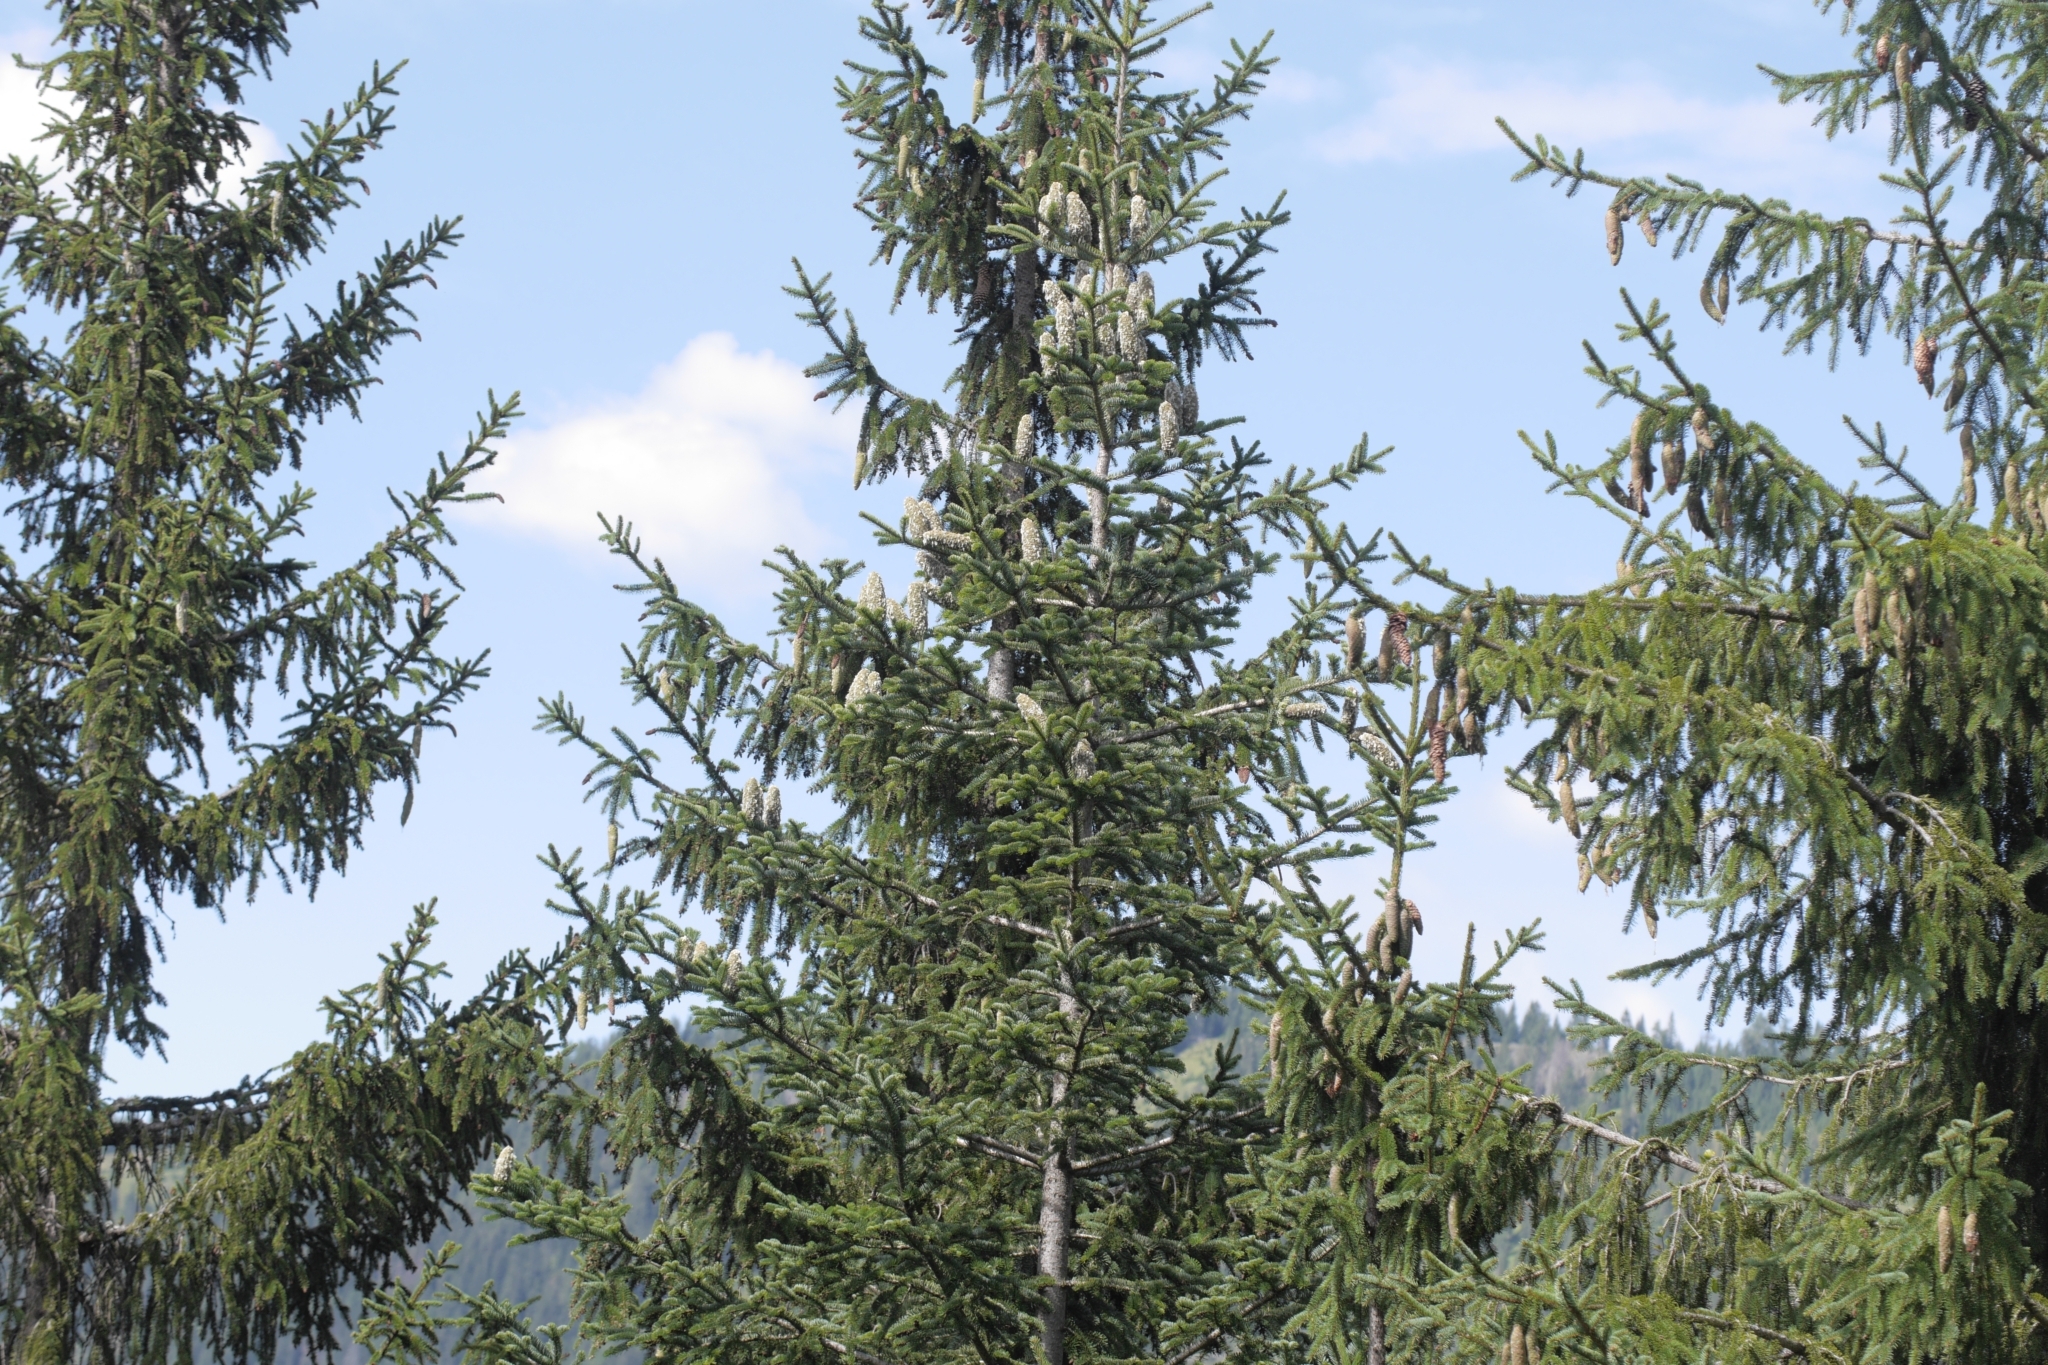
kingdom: Plantae
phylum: Tracheophyta
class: Pinopsida
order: Pinales
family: Pinaceae
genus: Picea
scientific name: Picea abies
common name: Norway spruce
